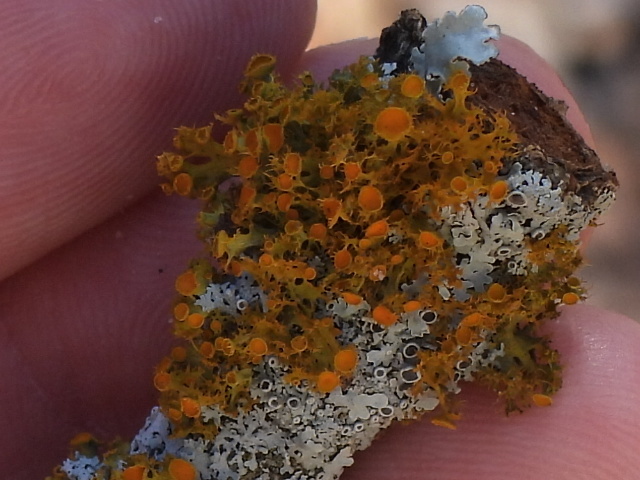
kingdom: Fungi
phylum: Ascomycota
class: Lecanoromycetes
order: Teloschistales
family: Teloschistaceae
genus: Niorma
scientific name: Niorma chrysophthalma
